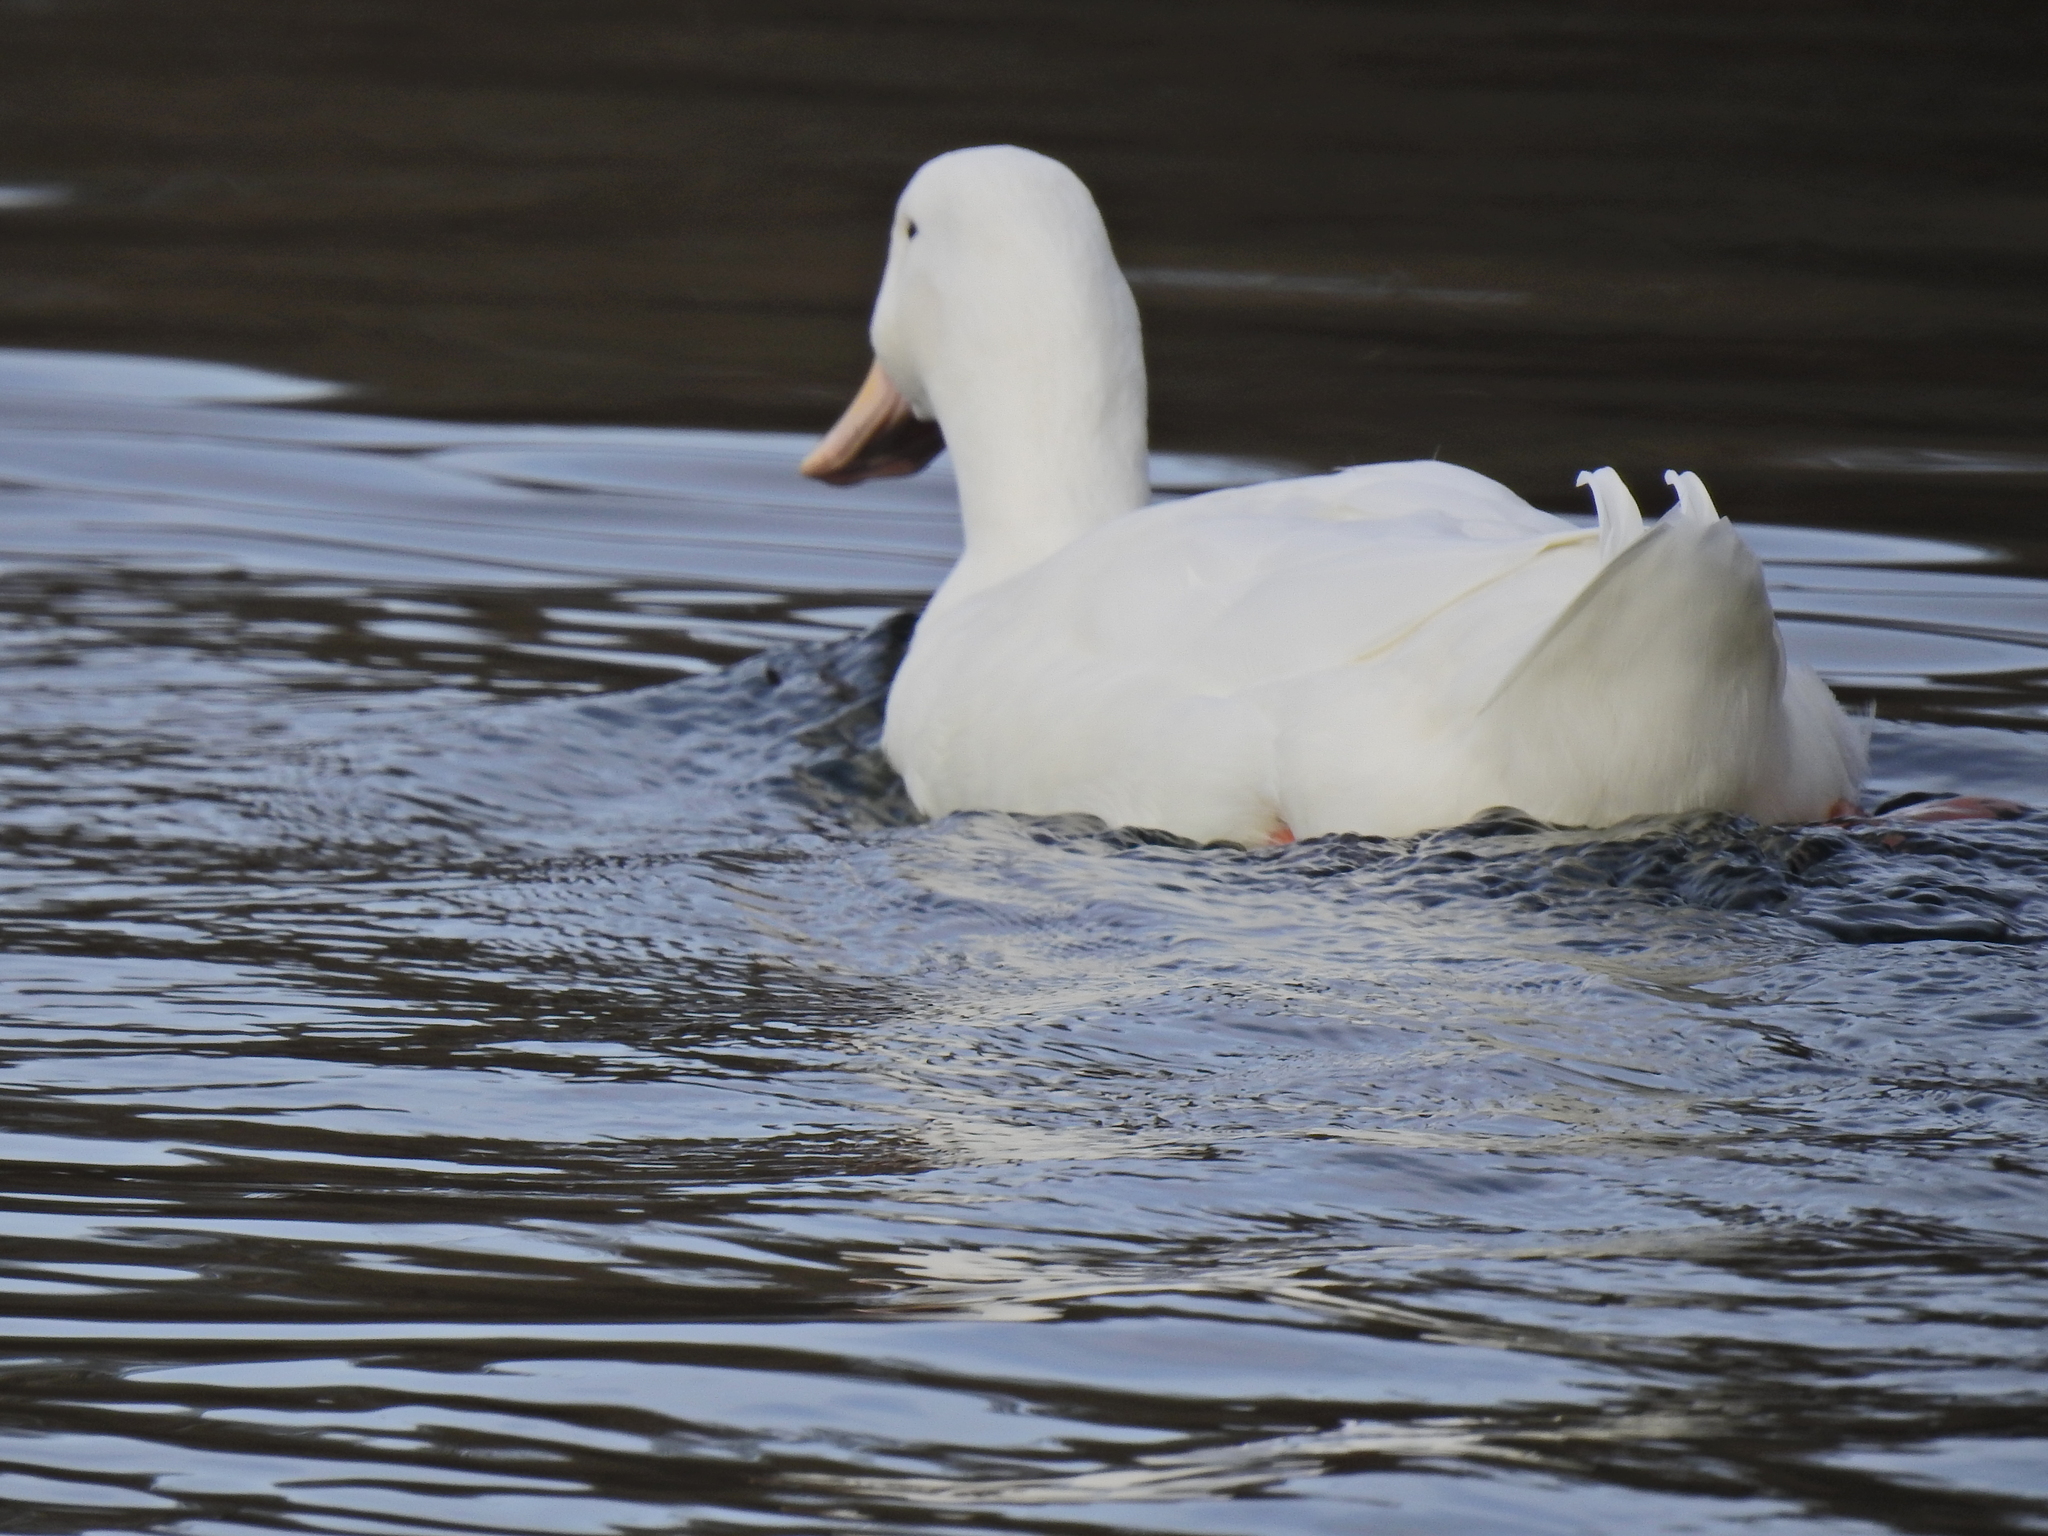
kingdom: Animalia
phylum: Chordata
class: Aves
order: Anseriformes
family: Anatidae
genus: Anas
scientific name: Anas platyrhynchos
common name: Mallard
